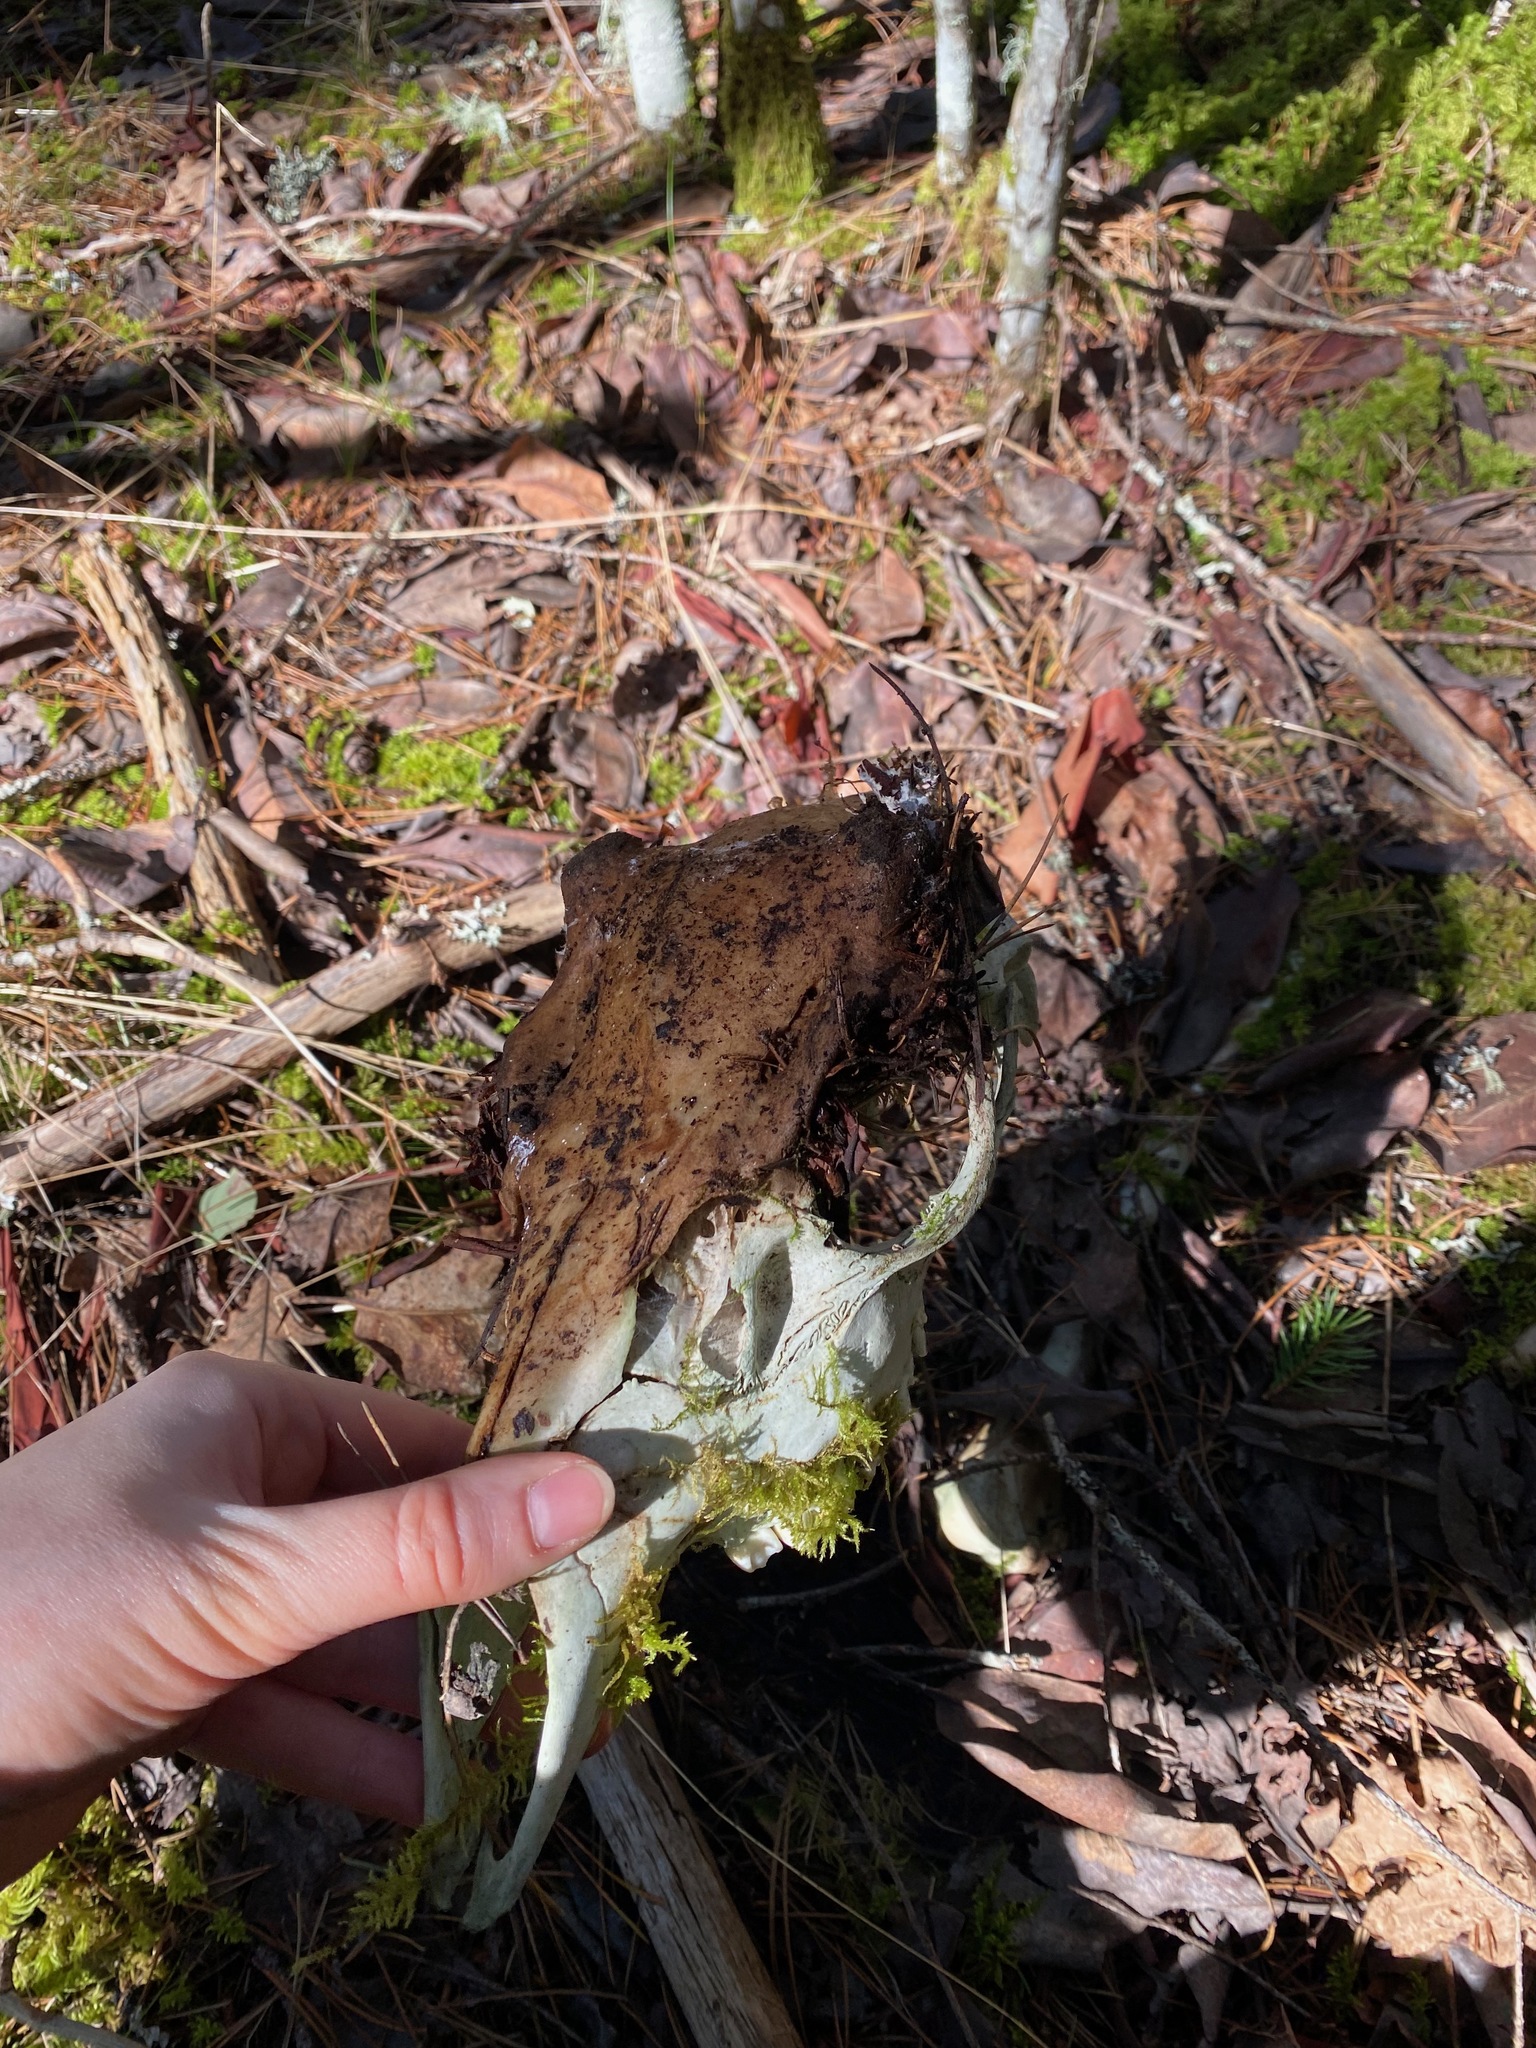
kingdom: Animalia
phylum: Chordata
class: Mammalia
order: Artiodactyla
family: Cervidae
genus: Odocoileus
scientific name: Odocoileus hemionus
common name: Mule deer
